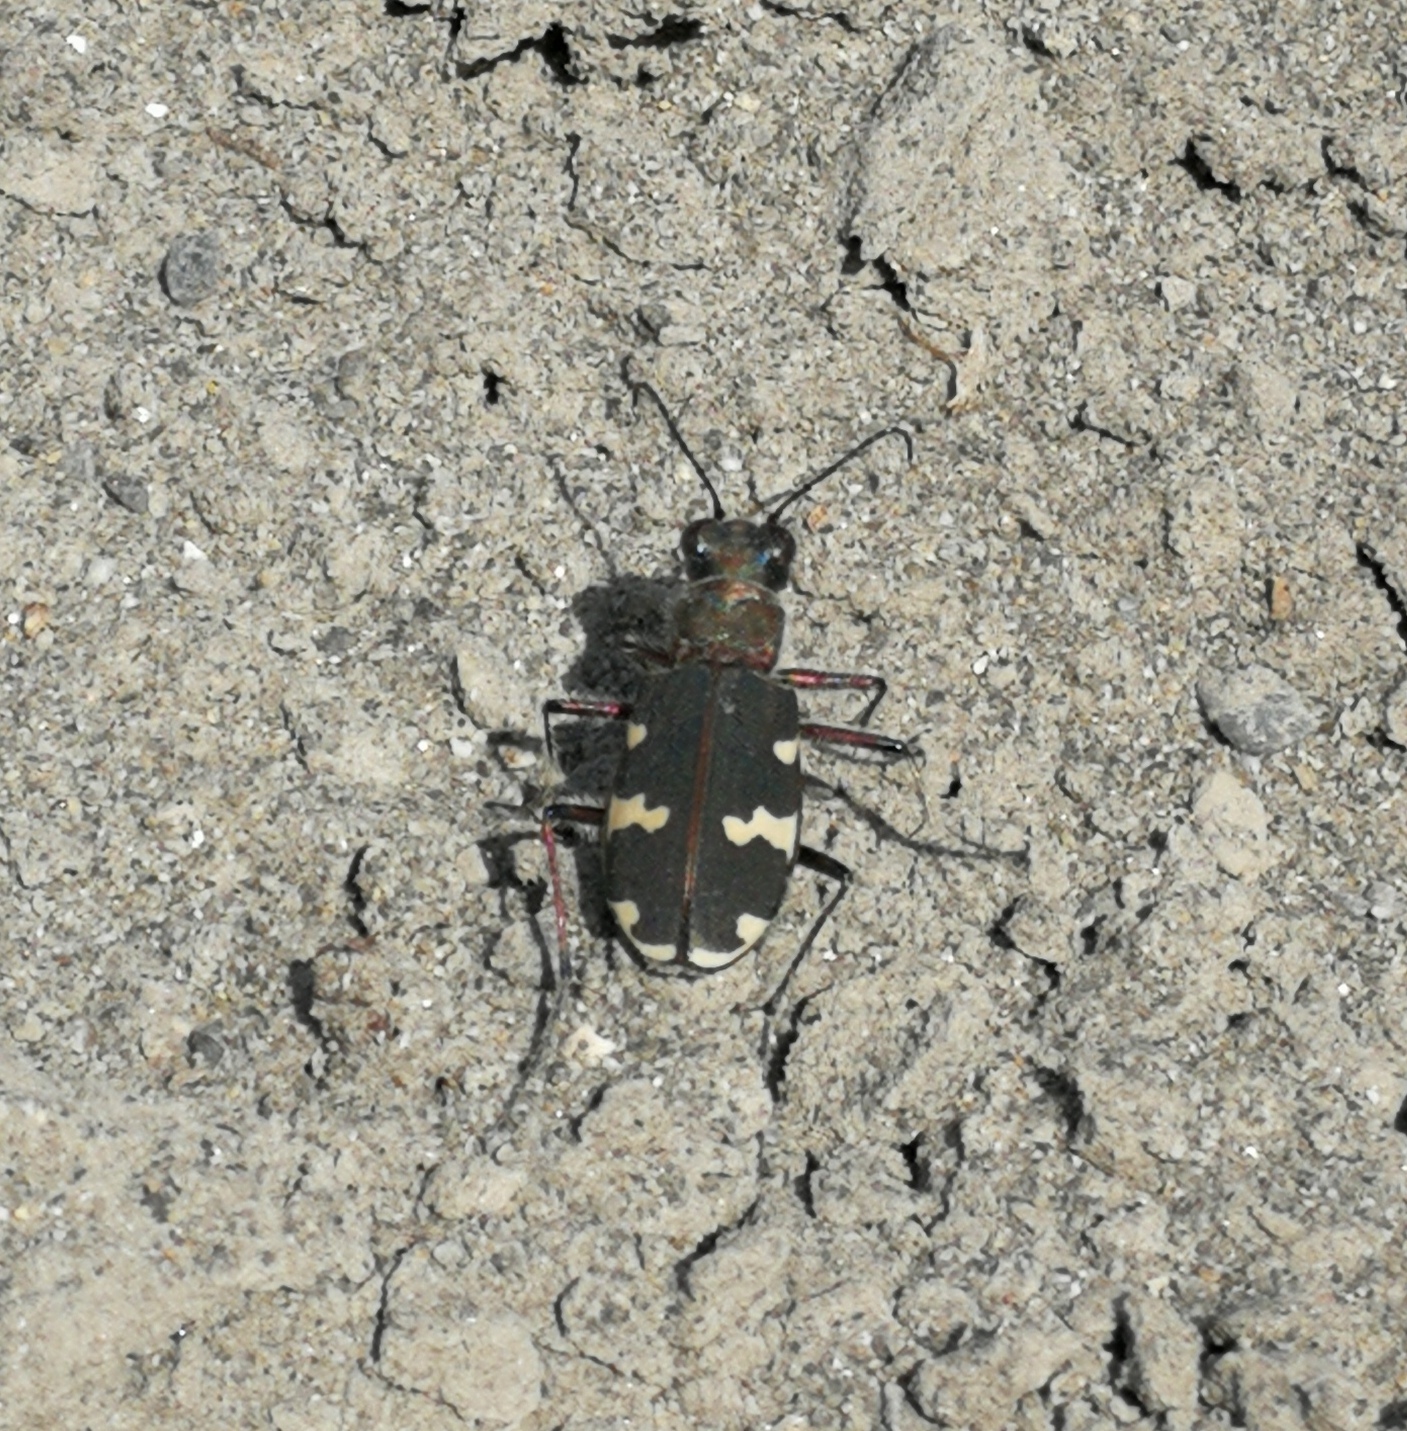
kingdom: Animalia
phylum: Arthropoda
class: Insecta
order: Coleoptera
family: Carabidae
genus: Cicindela
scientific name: Cicindela hybrida
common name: Northern dune tiger beetle
